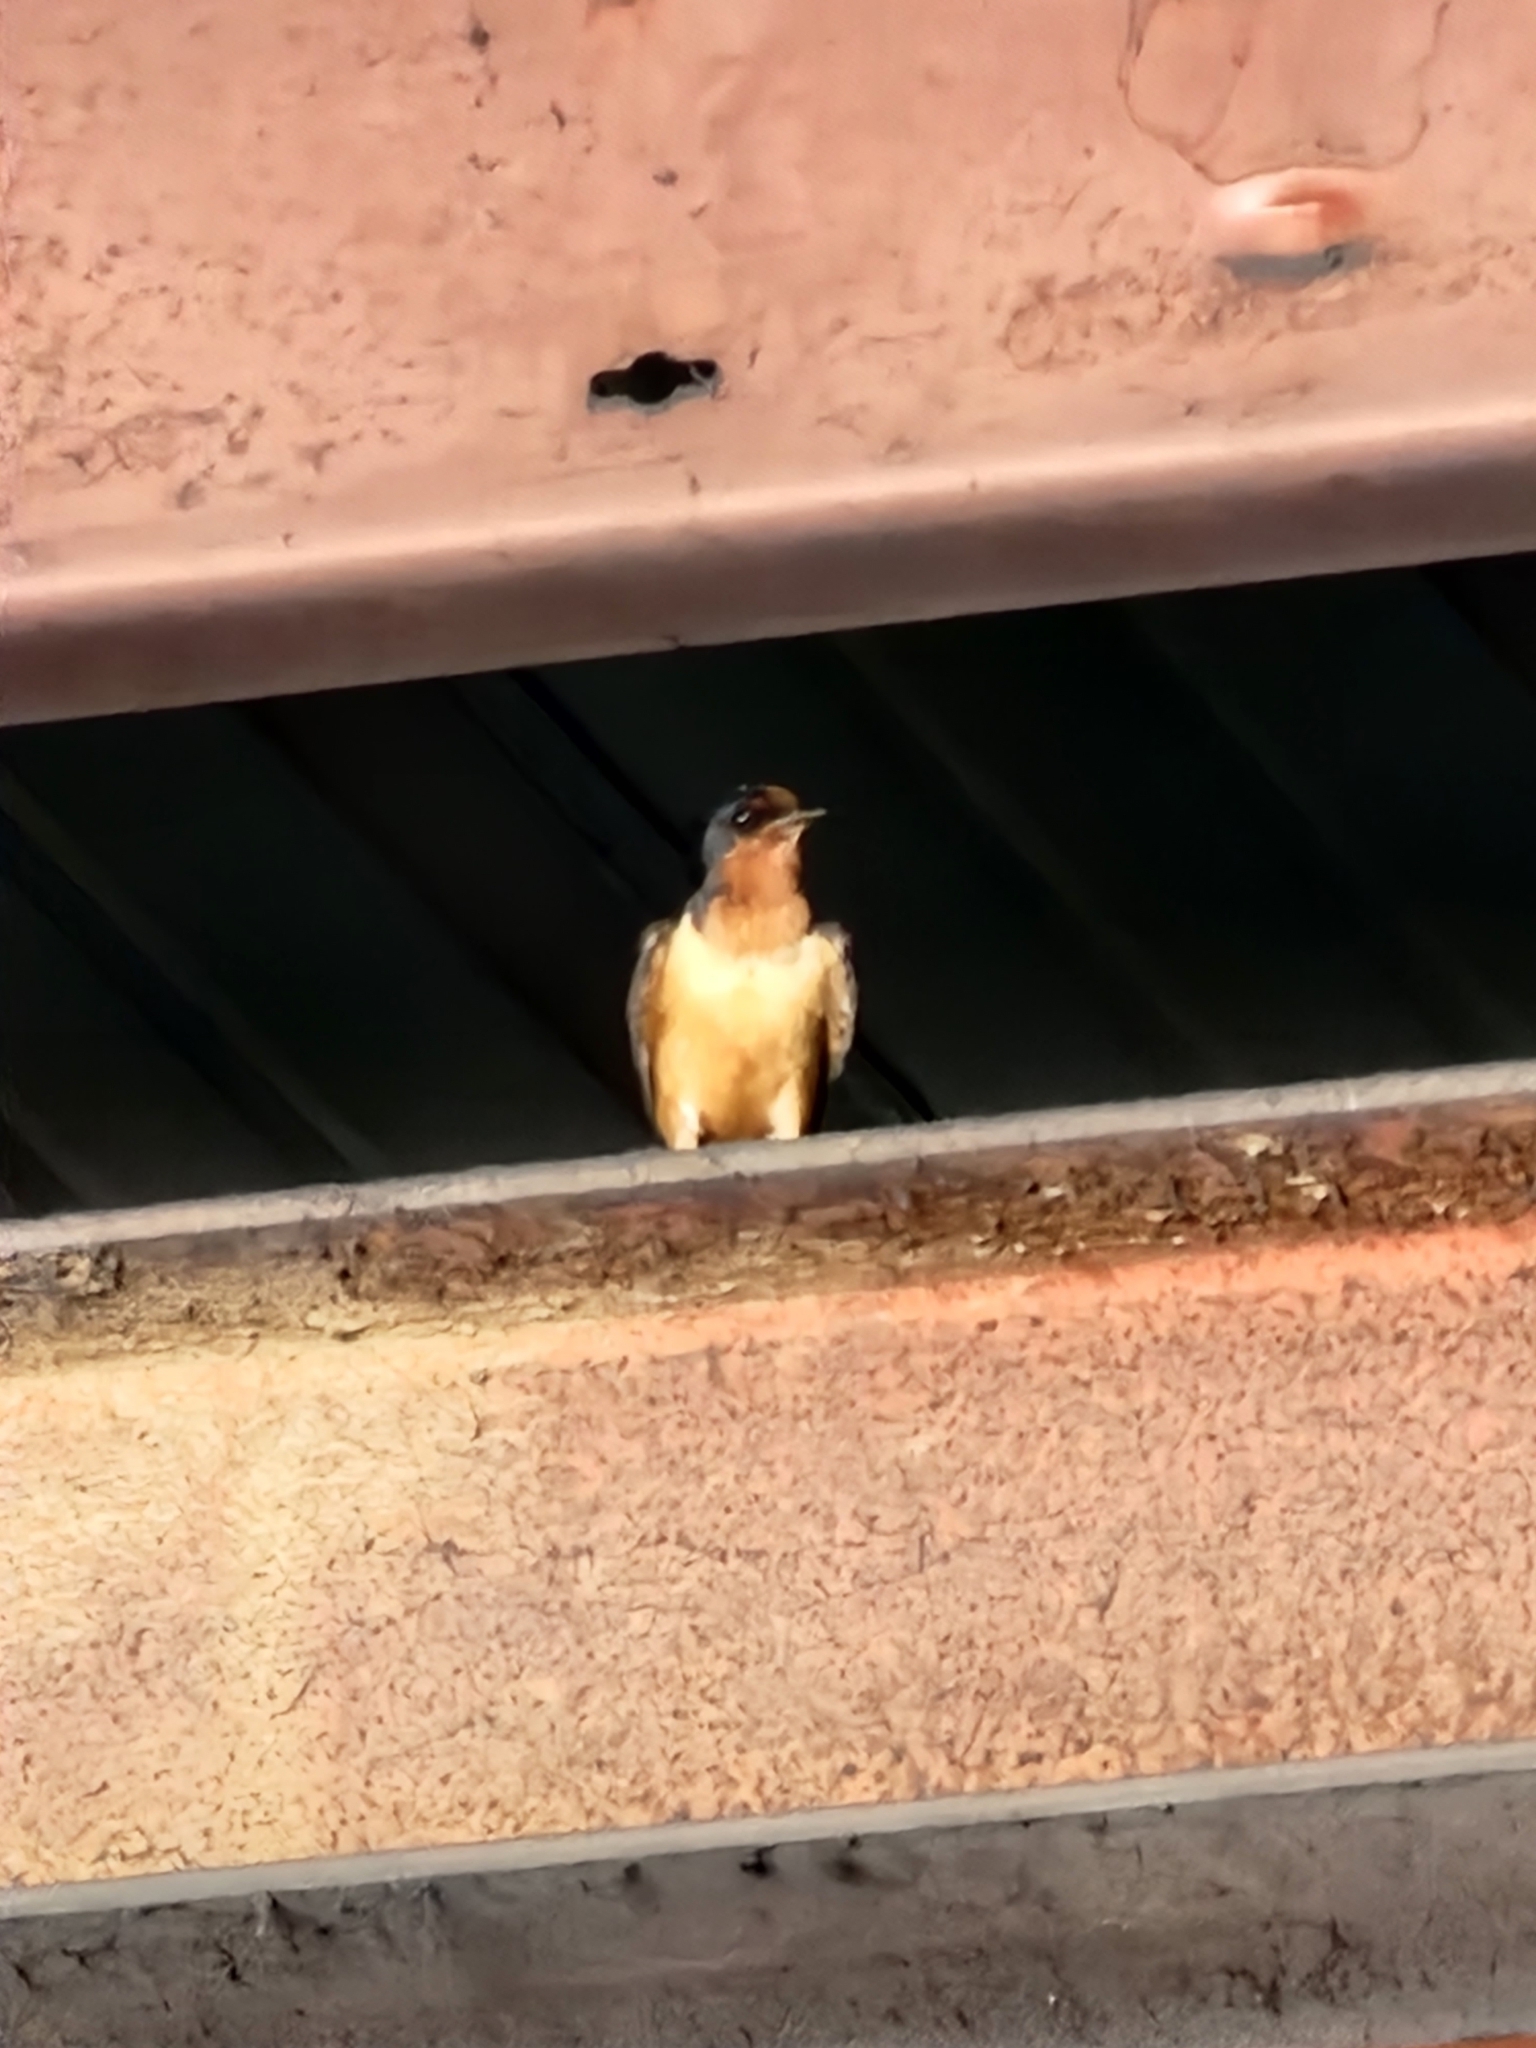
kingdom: Animalia
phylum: Chordata
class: Aves
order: Passeriformes
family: Hirundinidae
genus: Hirundo
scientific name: Hirundo rustica
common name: Barn swallow
